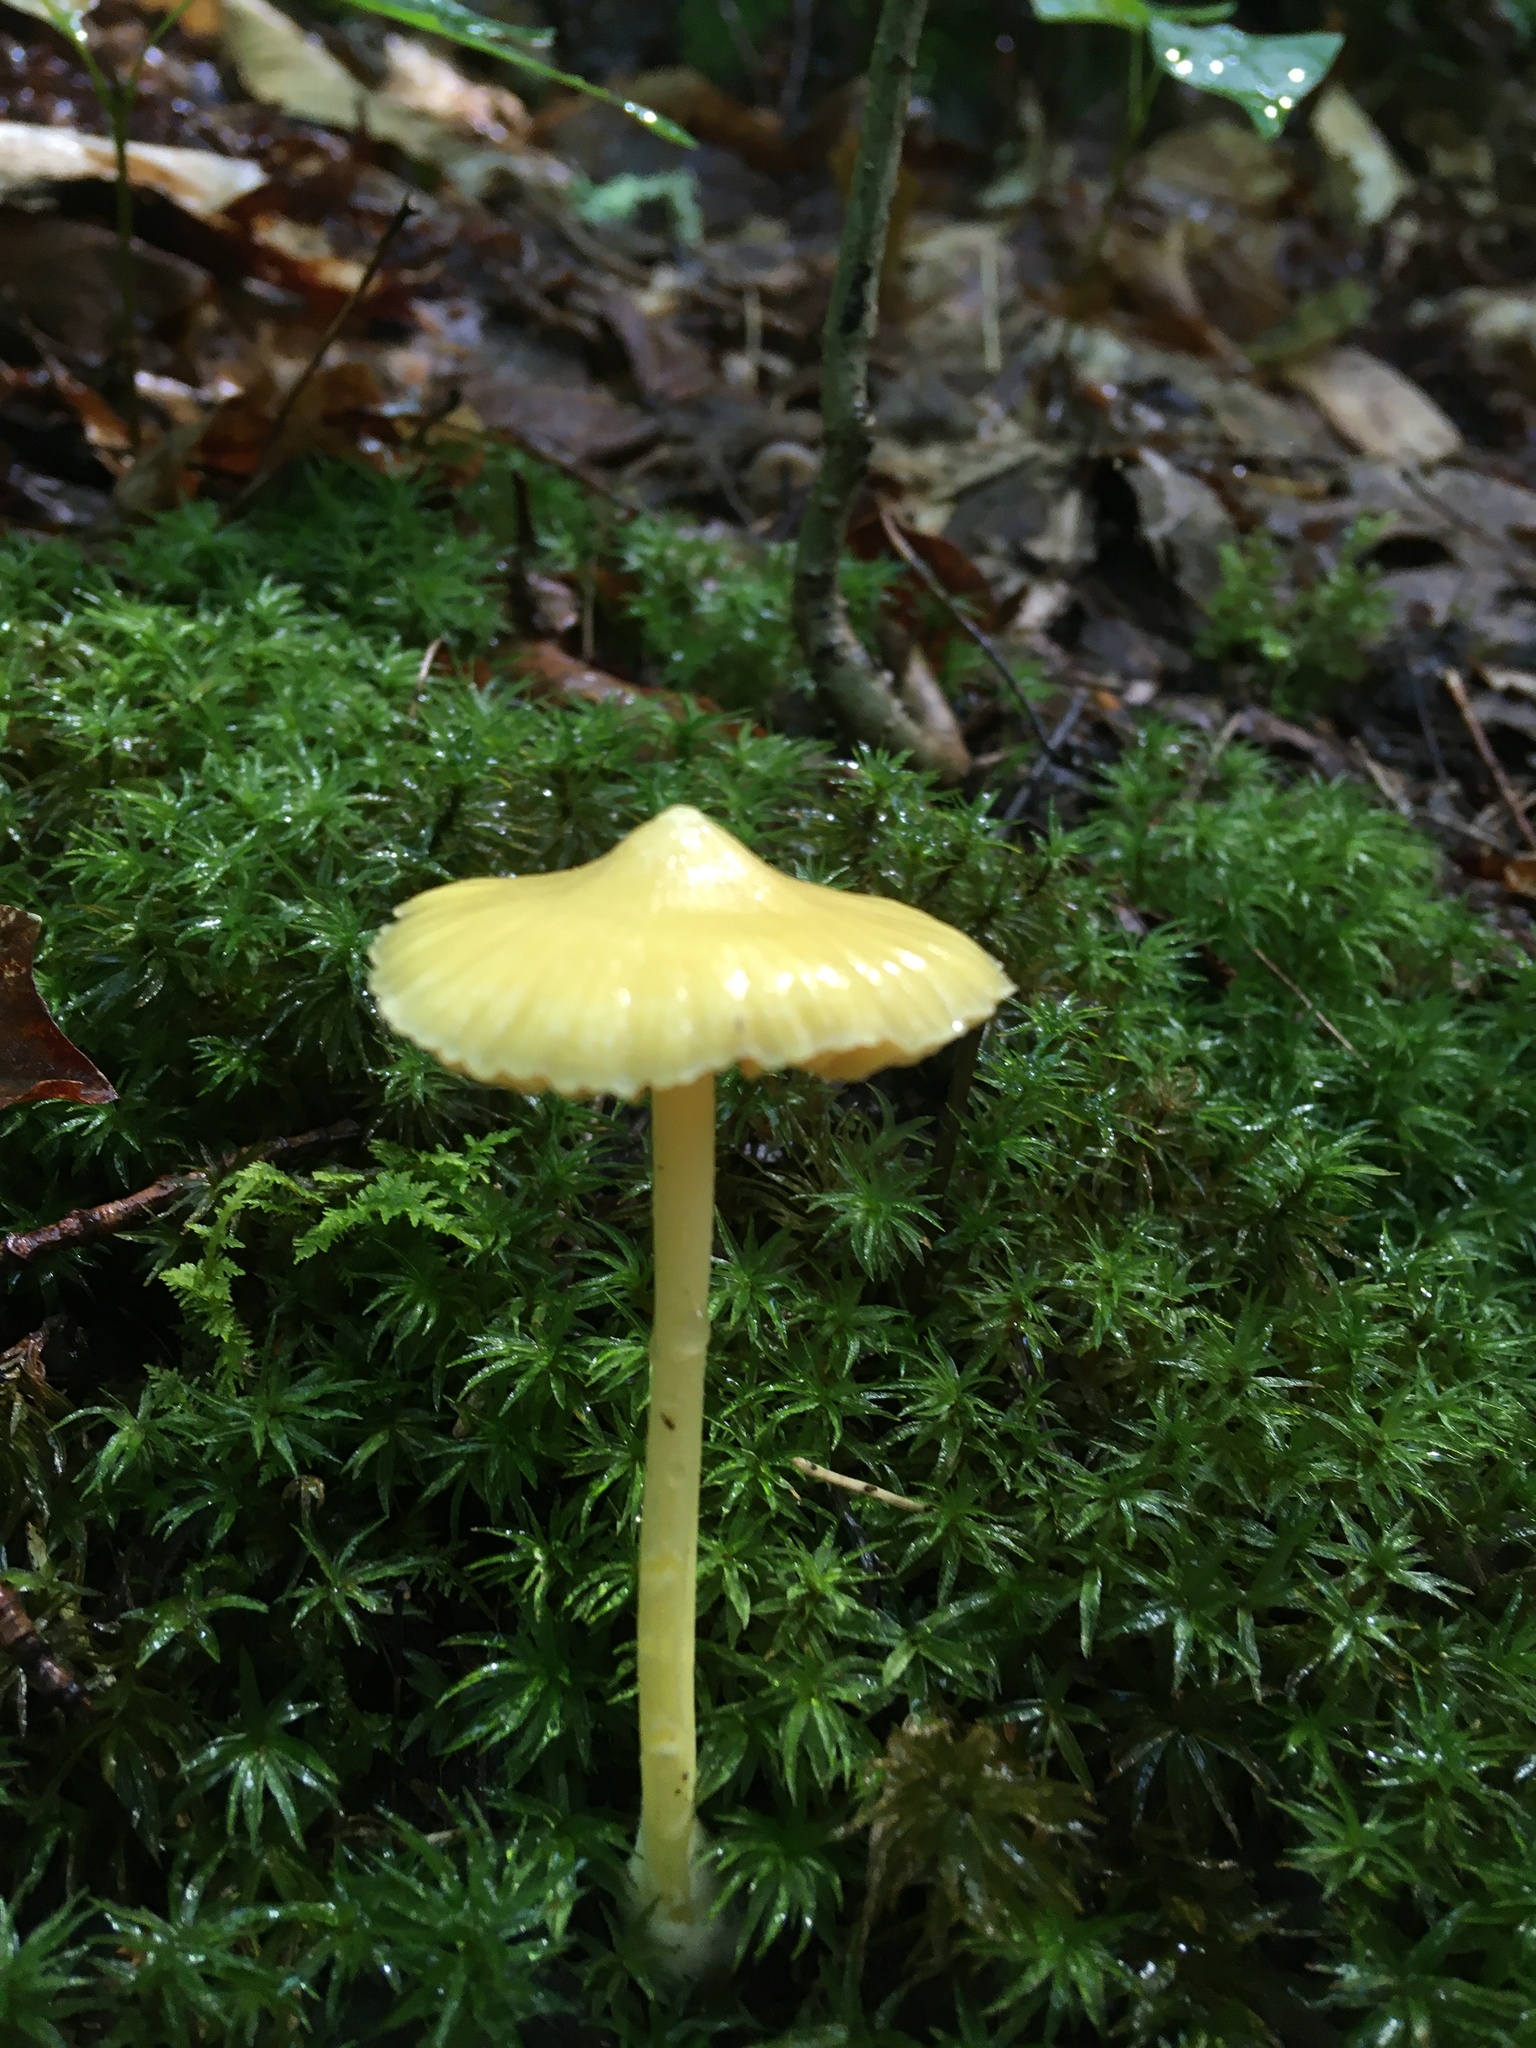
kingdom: Fungi
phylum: Basidiomycota
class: Agaricomycetes
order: Agaricales
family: Entolomataceae
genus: Entoloma
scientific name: Entoloma murrayi
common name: Yellow unicorn entoloma
